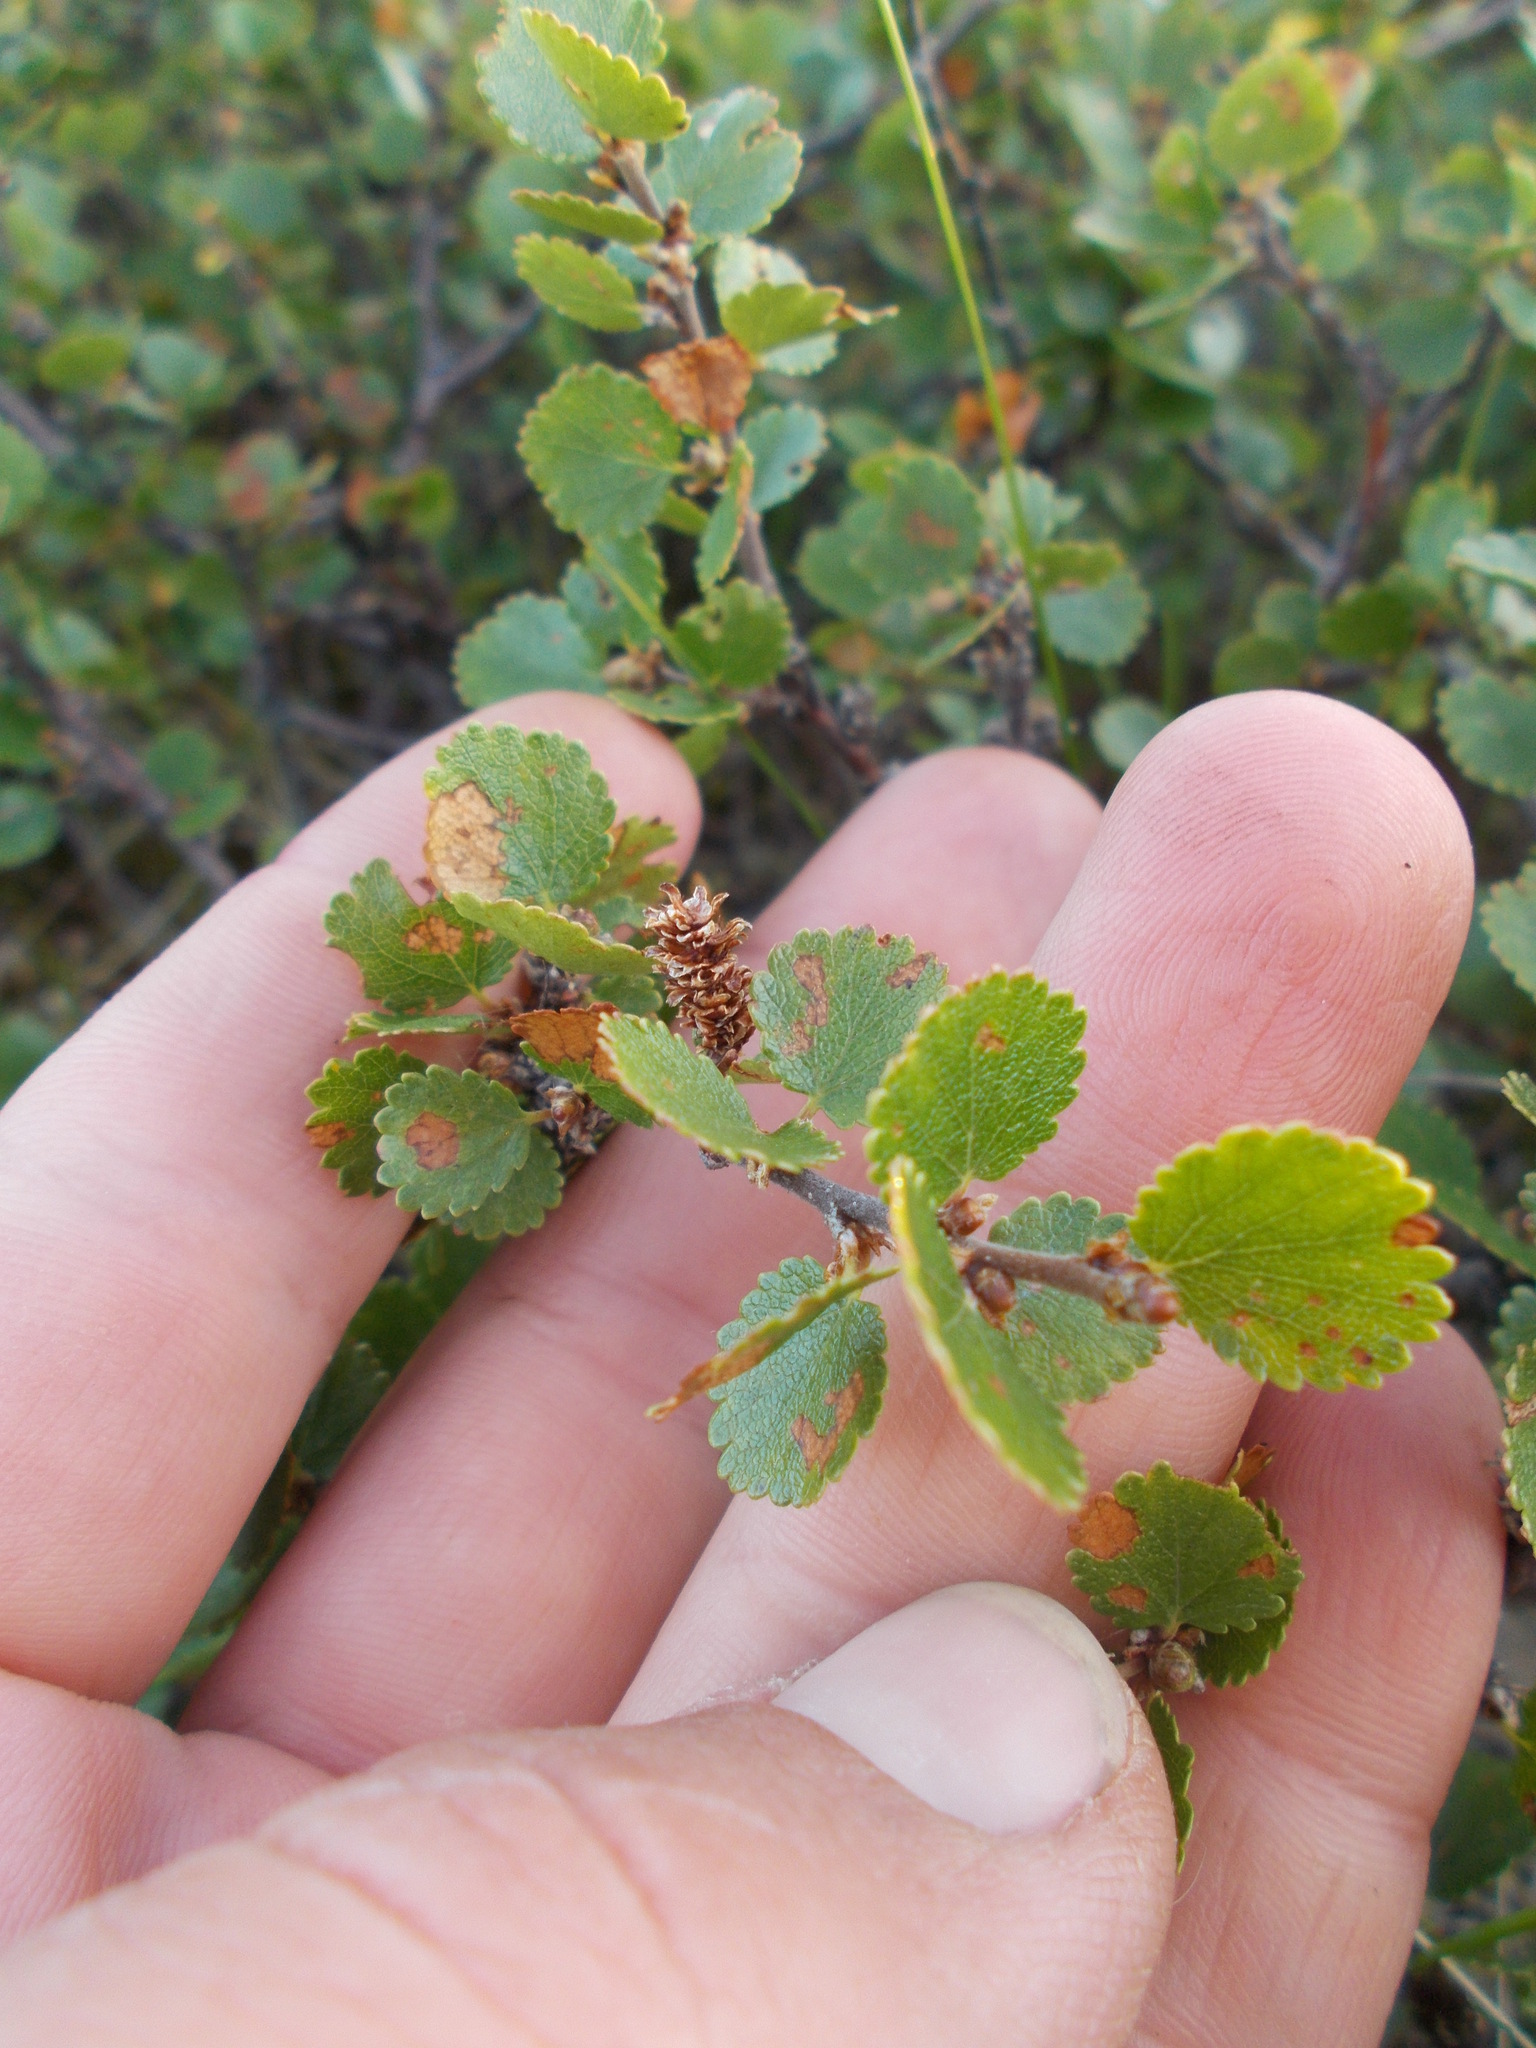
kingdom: Plantae
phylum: Tracheophyta
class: Magnoliopsida
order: Fagales
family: Betulaceae
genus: Betula
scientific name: Betula nana
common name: Arctic dwarf birch
